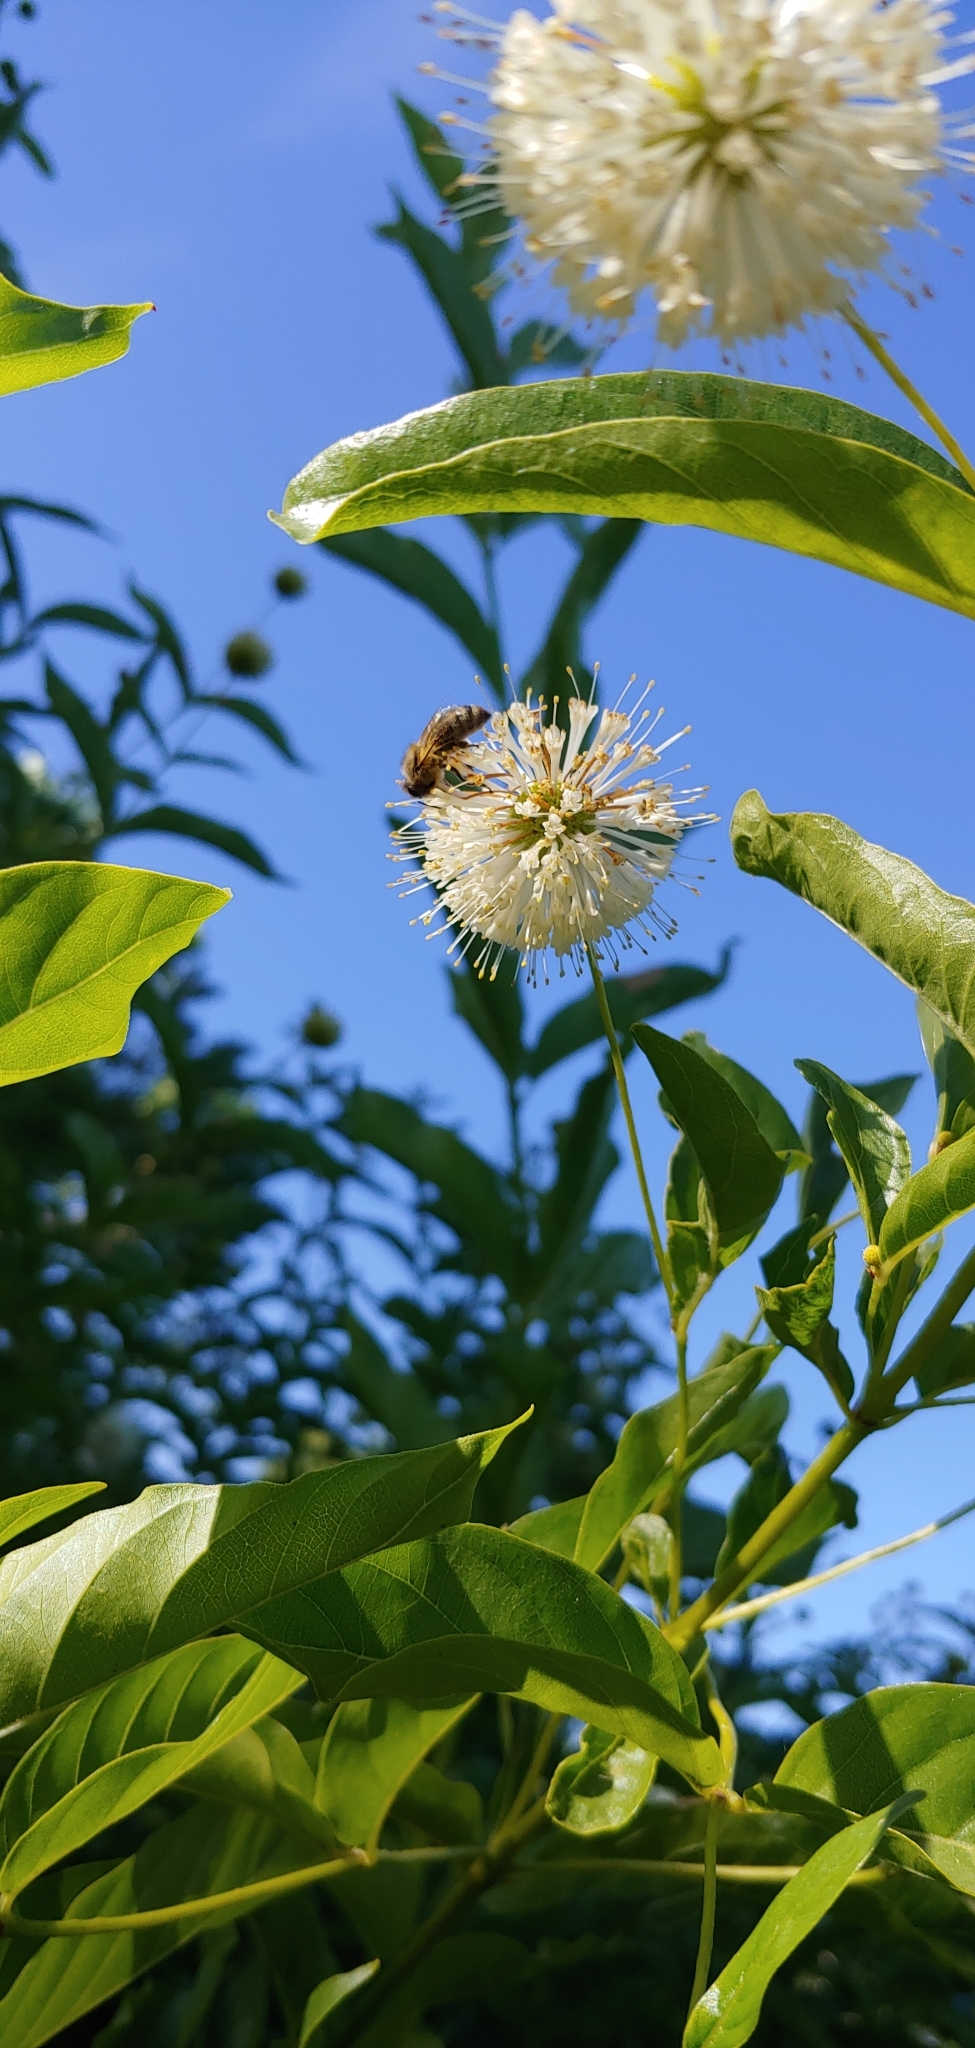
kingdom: Animalia
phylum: Arthropoda
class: Insecta
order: Hymenoptera
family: Apidae
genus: Apis
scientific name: Apis mellifera
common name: Honey bee
